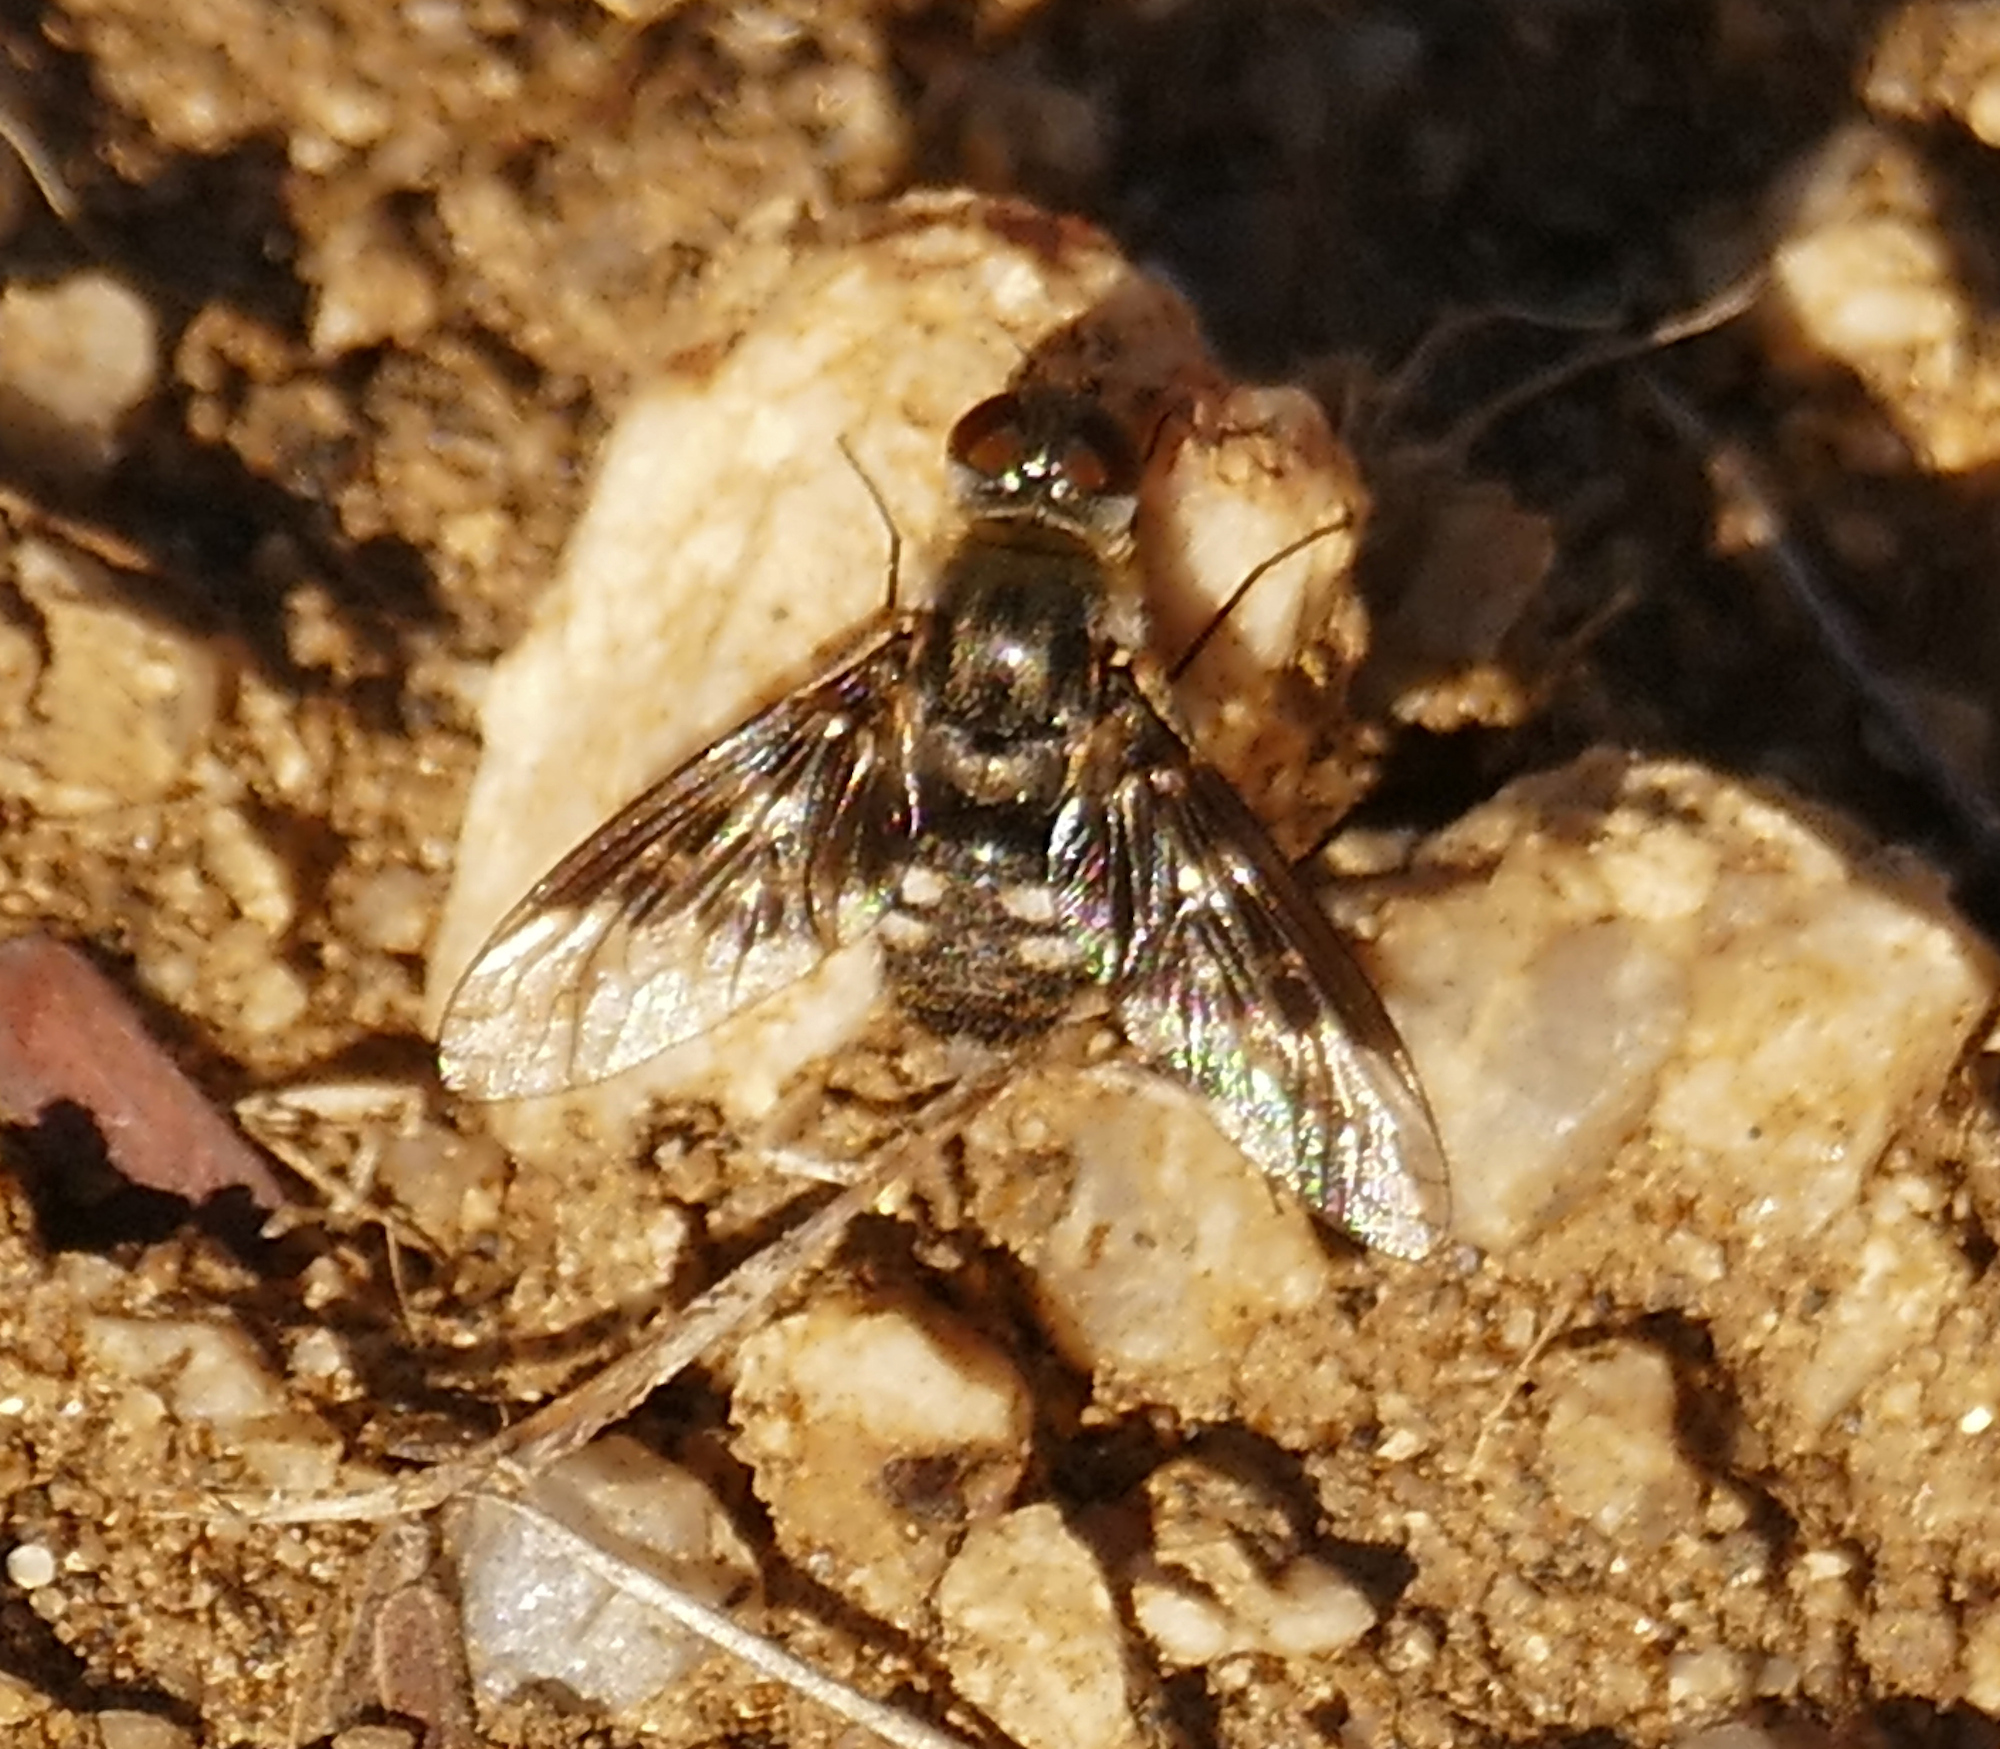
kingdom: Animalia
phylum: Arthropoda
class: Insecta
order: Diptera
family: Bombyliidae
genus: Thyridanthrax
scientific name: Thyridanthrax fenestratoides
